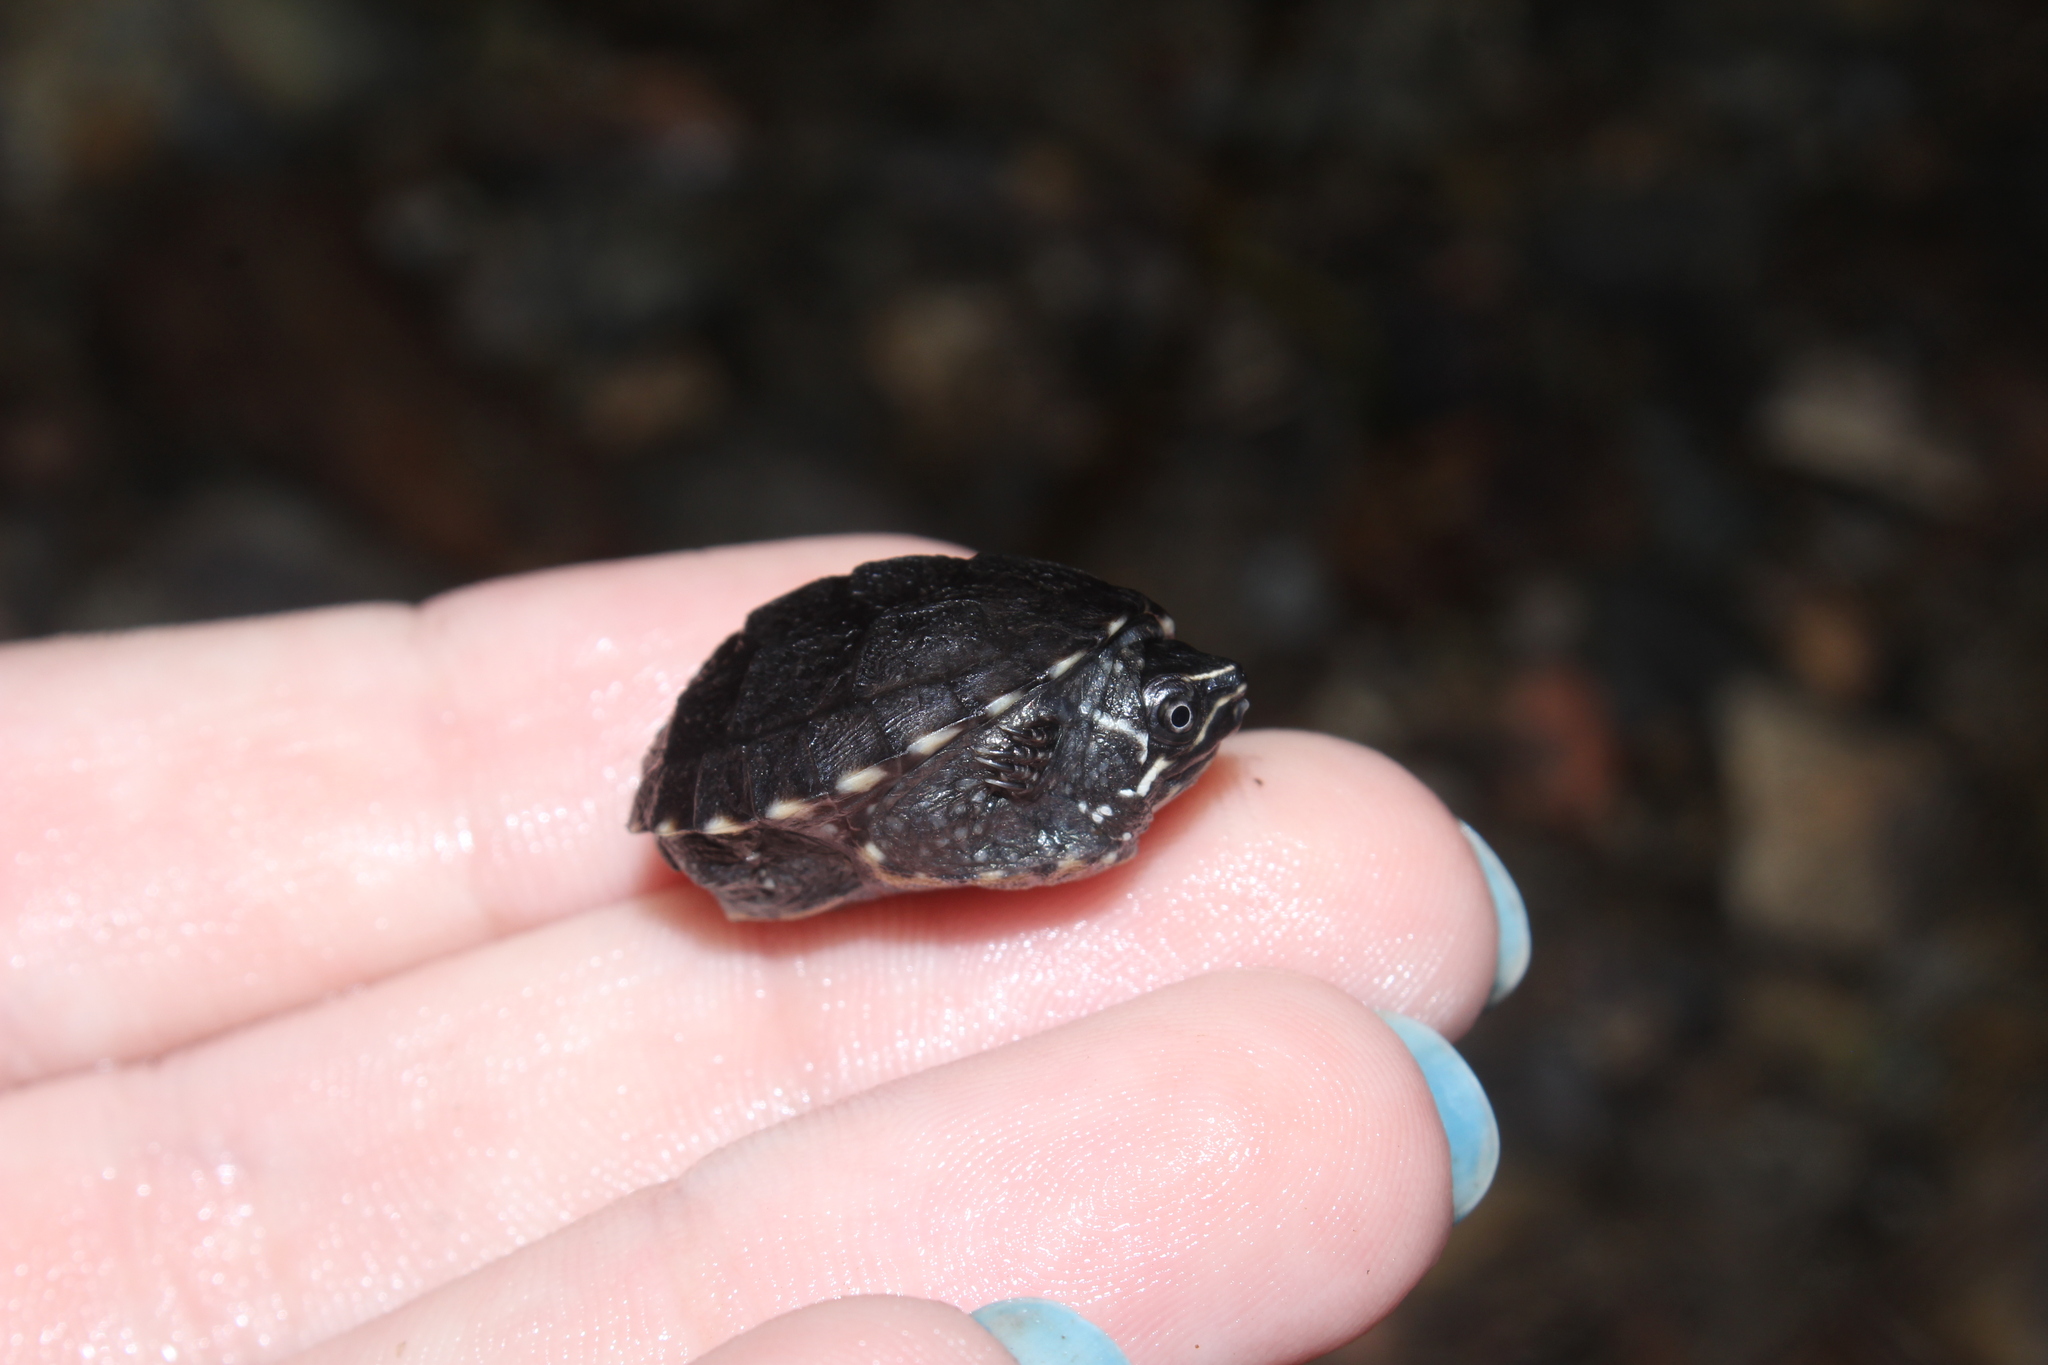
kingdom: Animalia
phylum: Chordata
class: Testudines
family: Kinosternidae
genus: Sternotherus
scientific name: Sternotherus odoratus
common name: Common musk turtle
